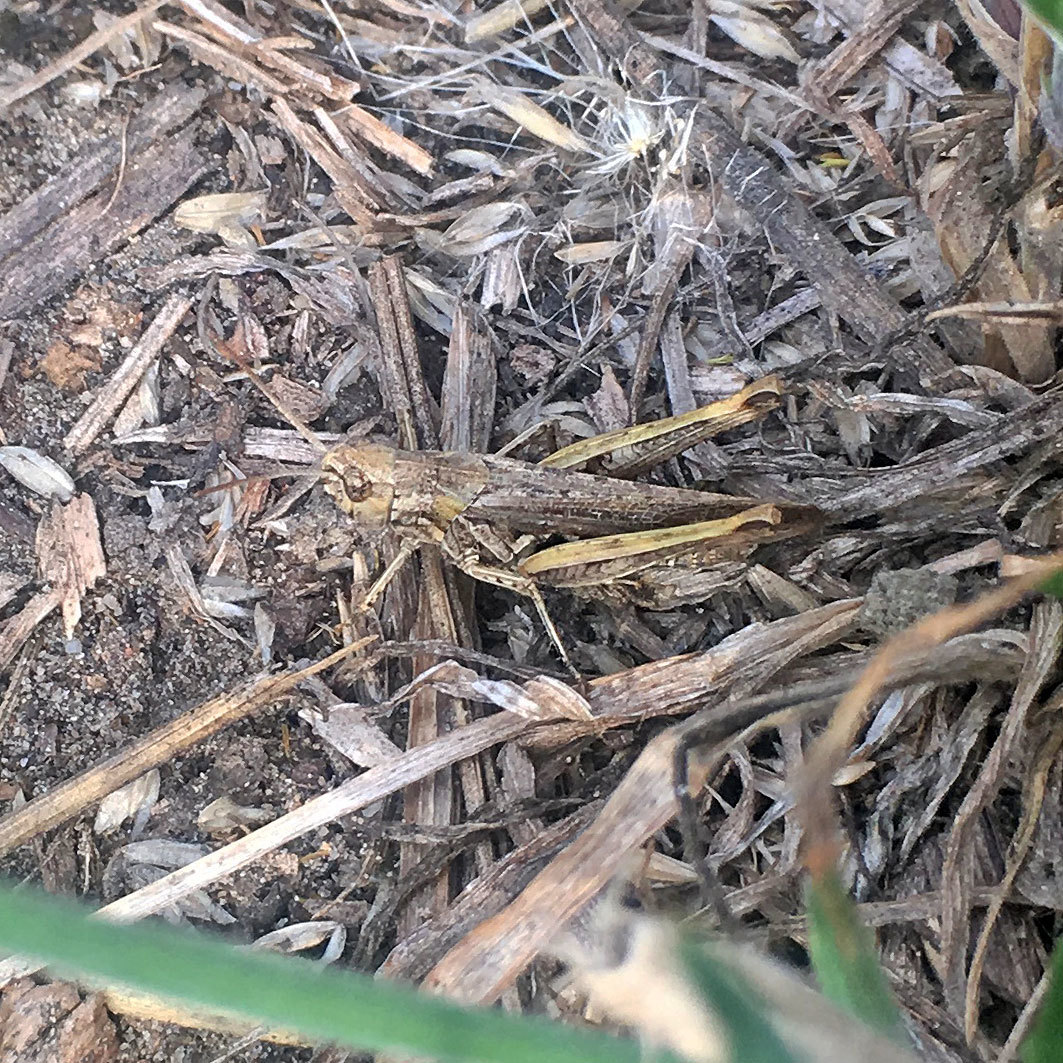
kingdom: Animalia
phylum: Arthropoda
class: Insecta
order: Orthoptera
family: Acrididae
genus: Chorthippus
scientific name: Chorthippus brunneus
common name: Field grasshopper
